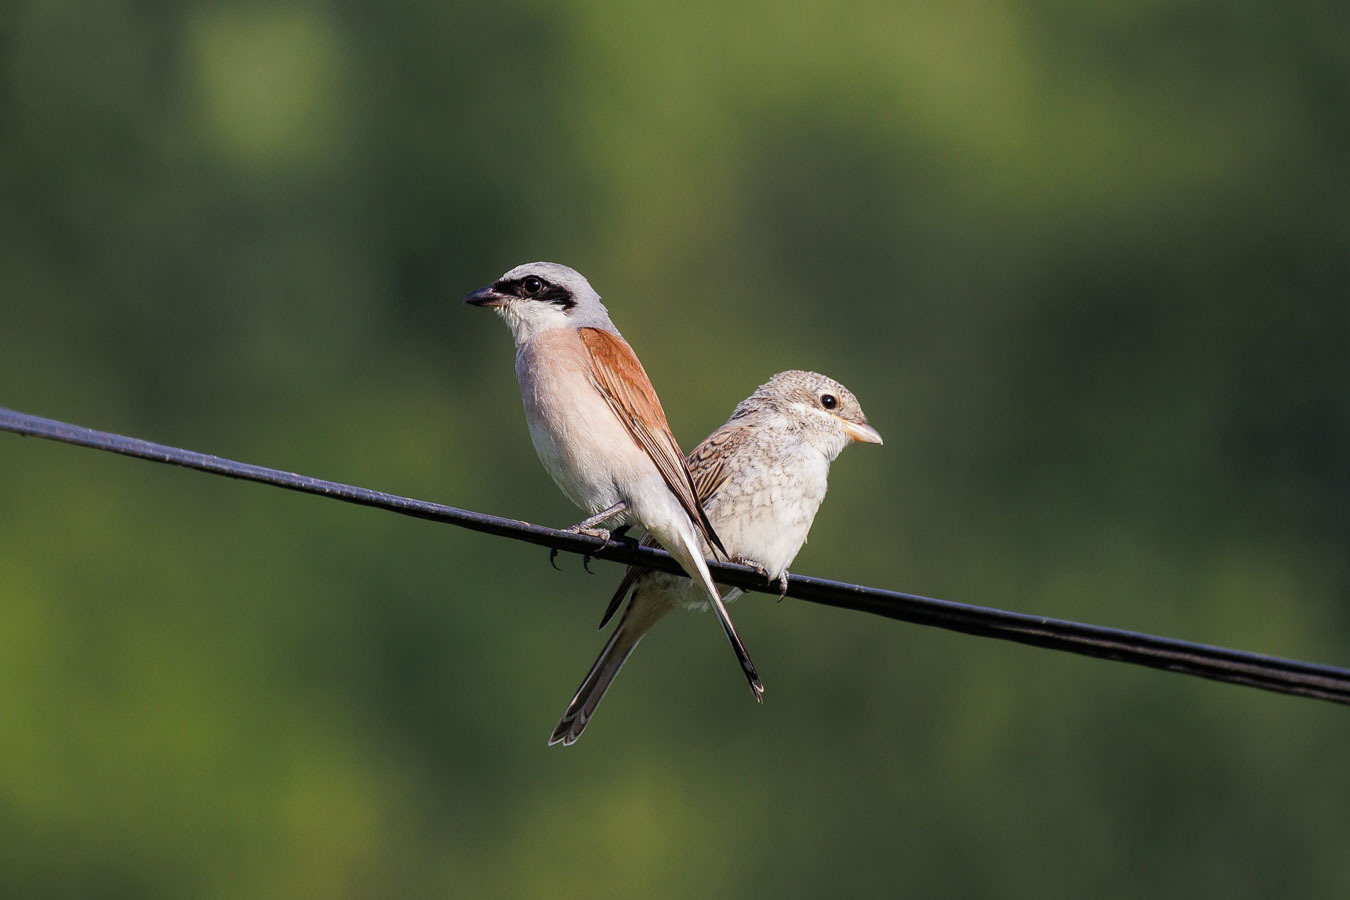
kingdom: Animalia
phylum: Chordata
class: Aves
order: Passeriformes
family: Laniidae
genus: Lanius
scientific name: Lanius collurio
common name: Red-backed shrike
